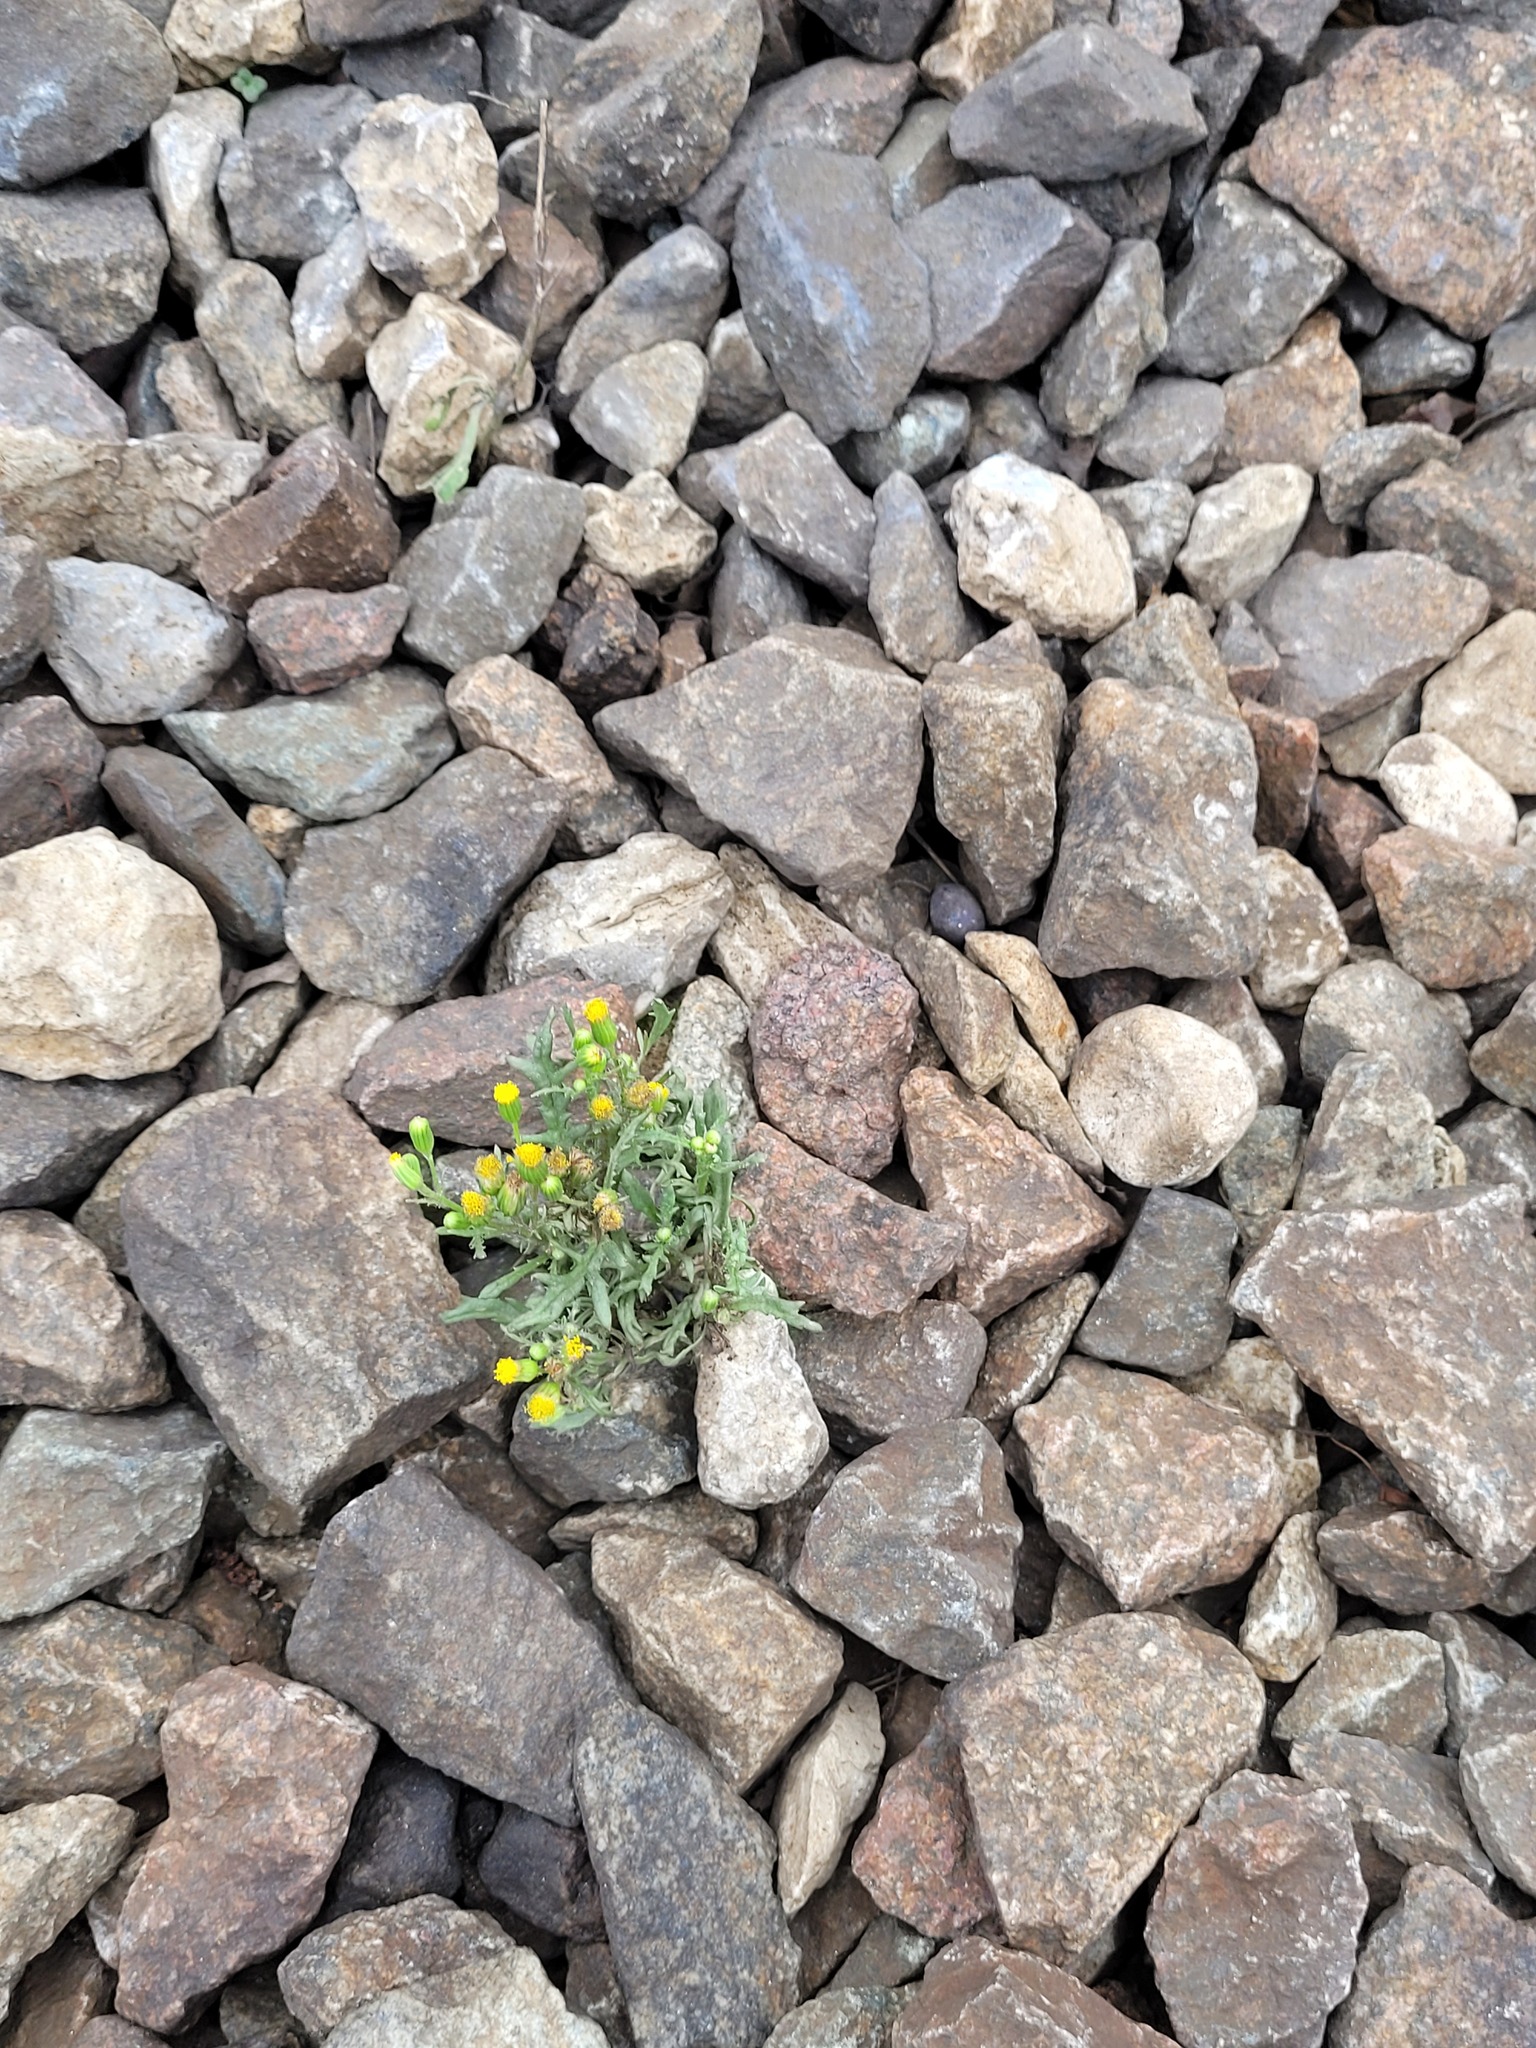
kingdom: Plantae
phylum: Tracheophyta
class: Magnoliopsida
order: Asterales
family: Asteraceae
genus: Senecio
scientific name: Senecio vulgaris
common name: Old-man-in-the-spring
